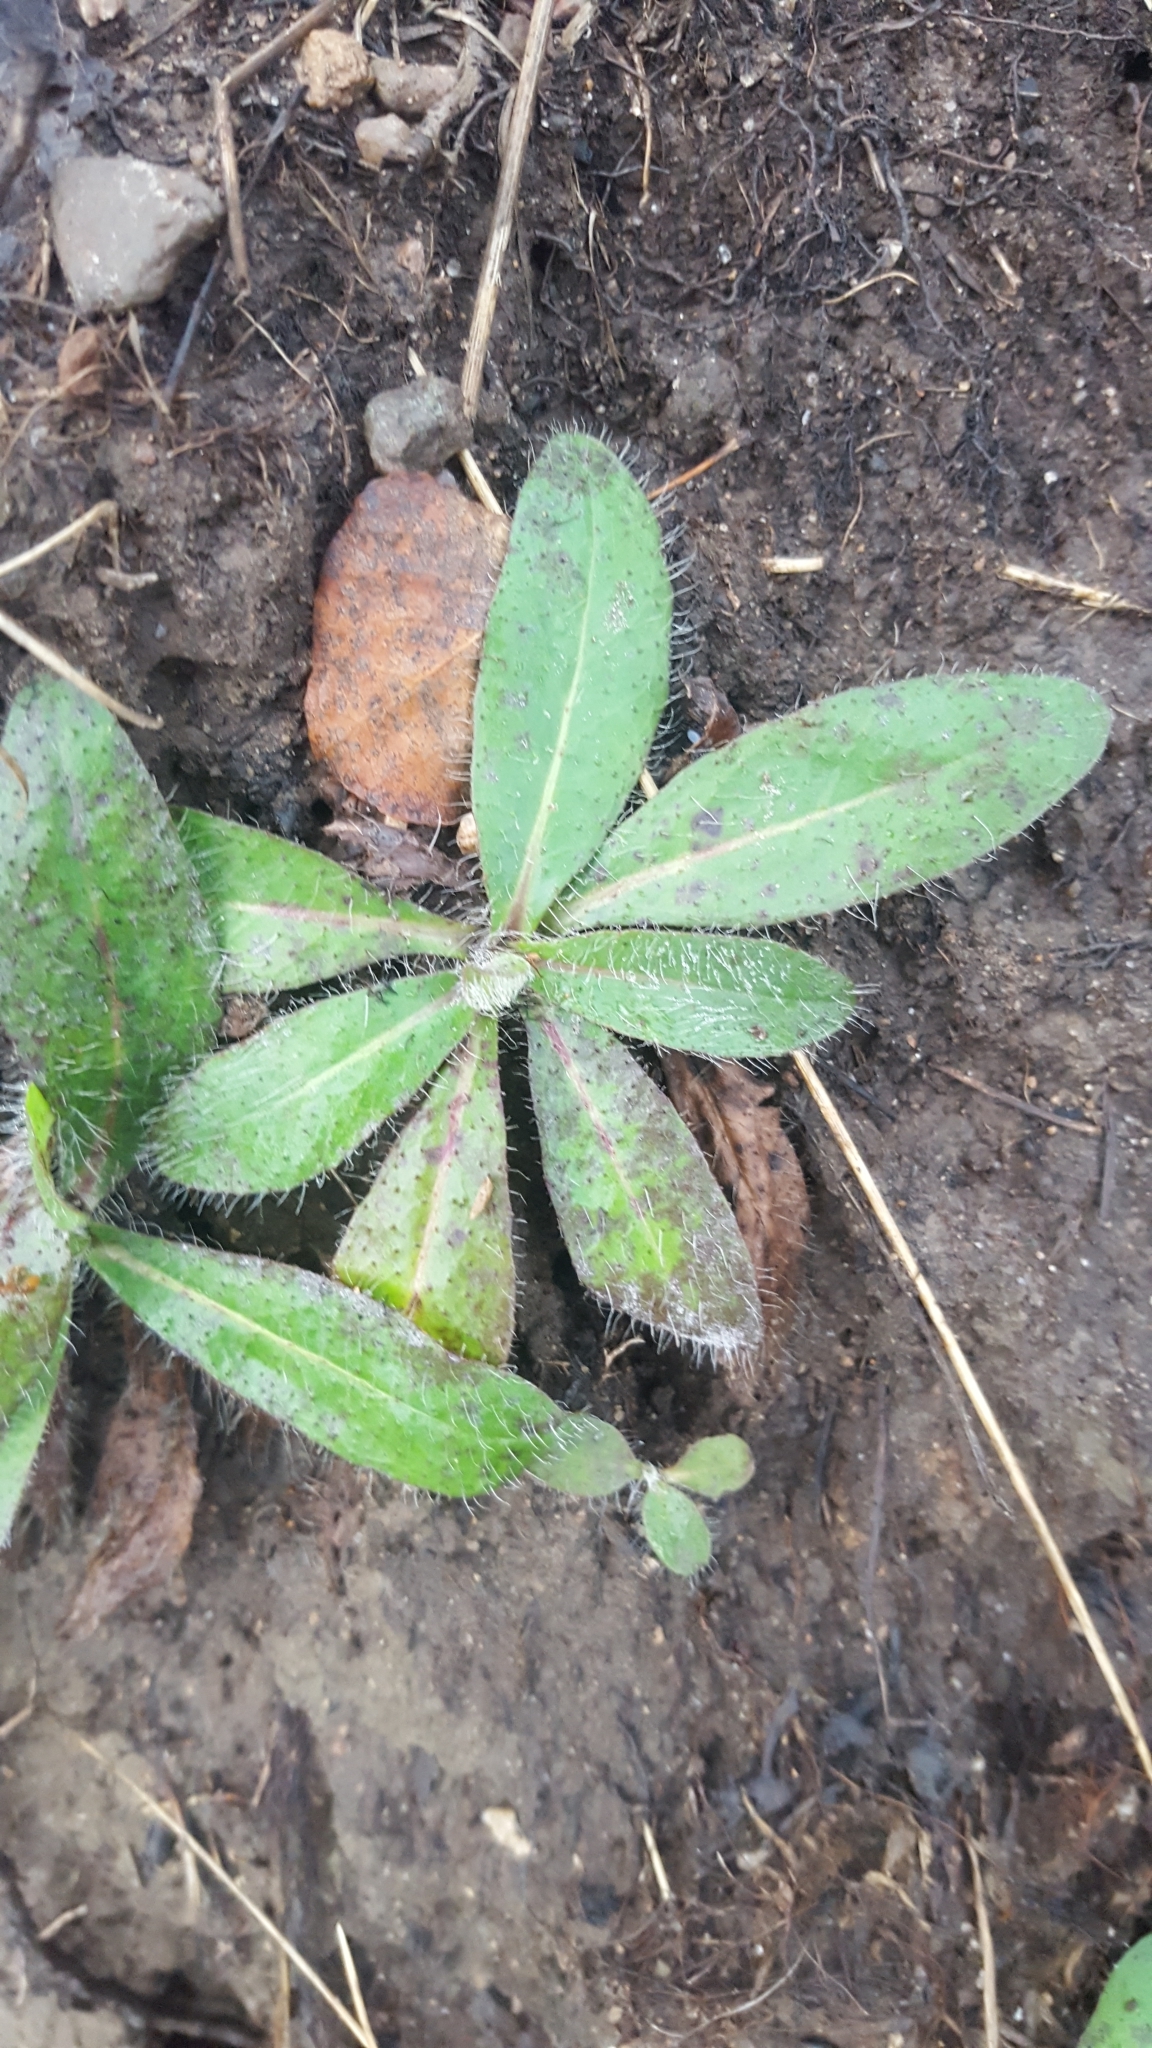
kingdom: Plantae
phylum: Tracheophyta
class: Magnoliopsida
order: Asterales
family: Asteraceae
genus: Pilosella
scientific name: Pilosella officinarum
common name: Mouse-ear hawkweed
